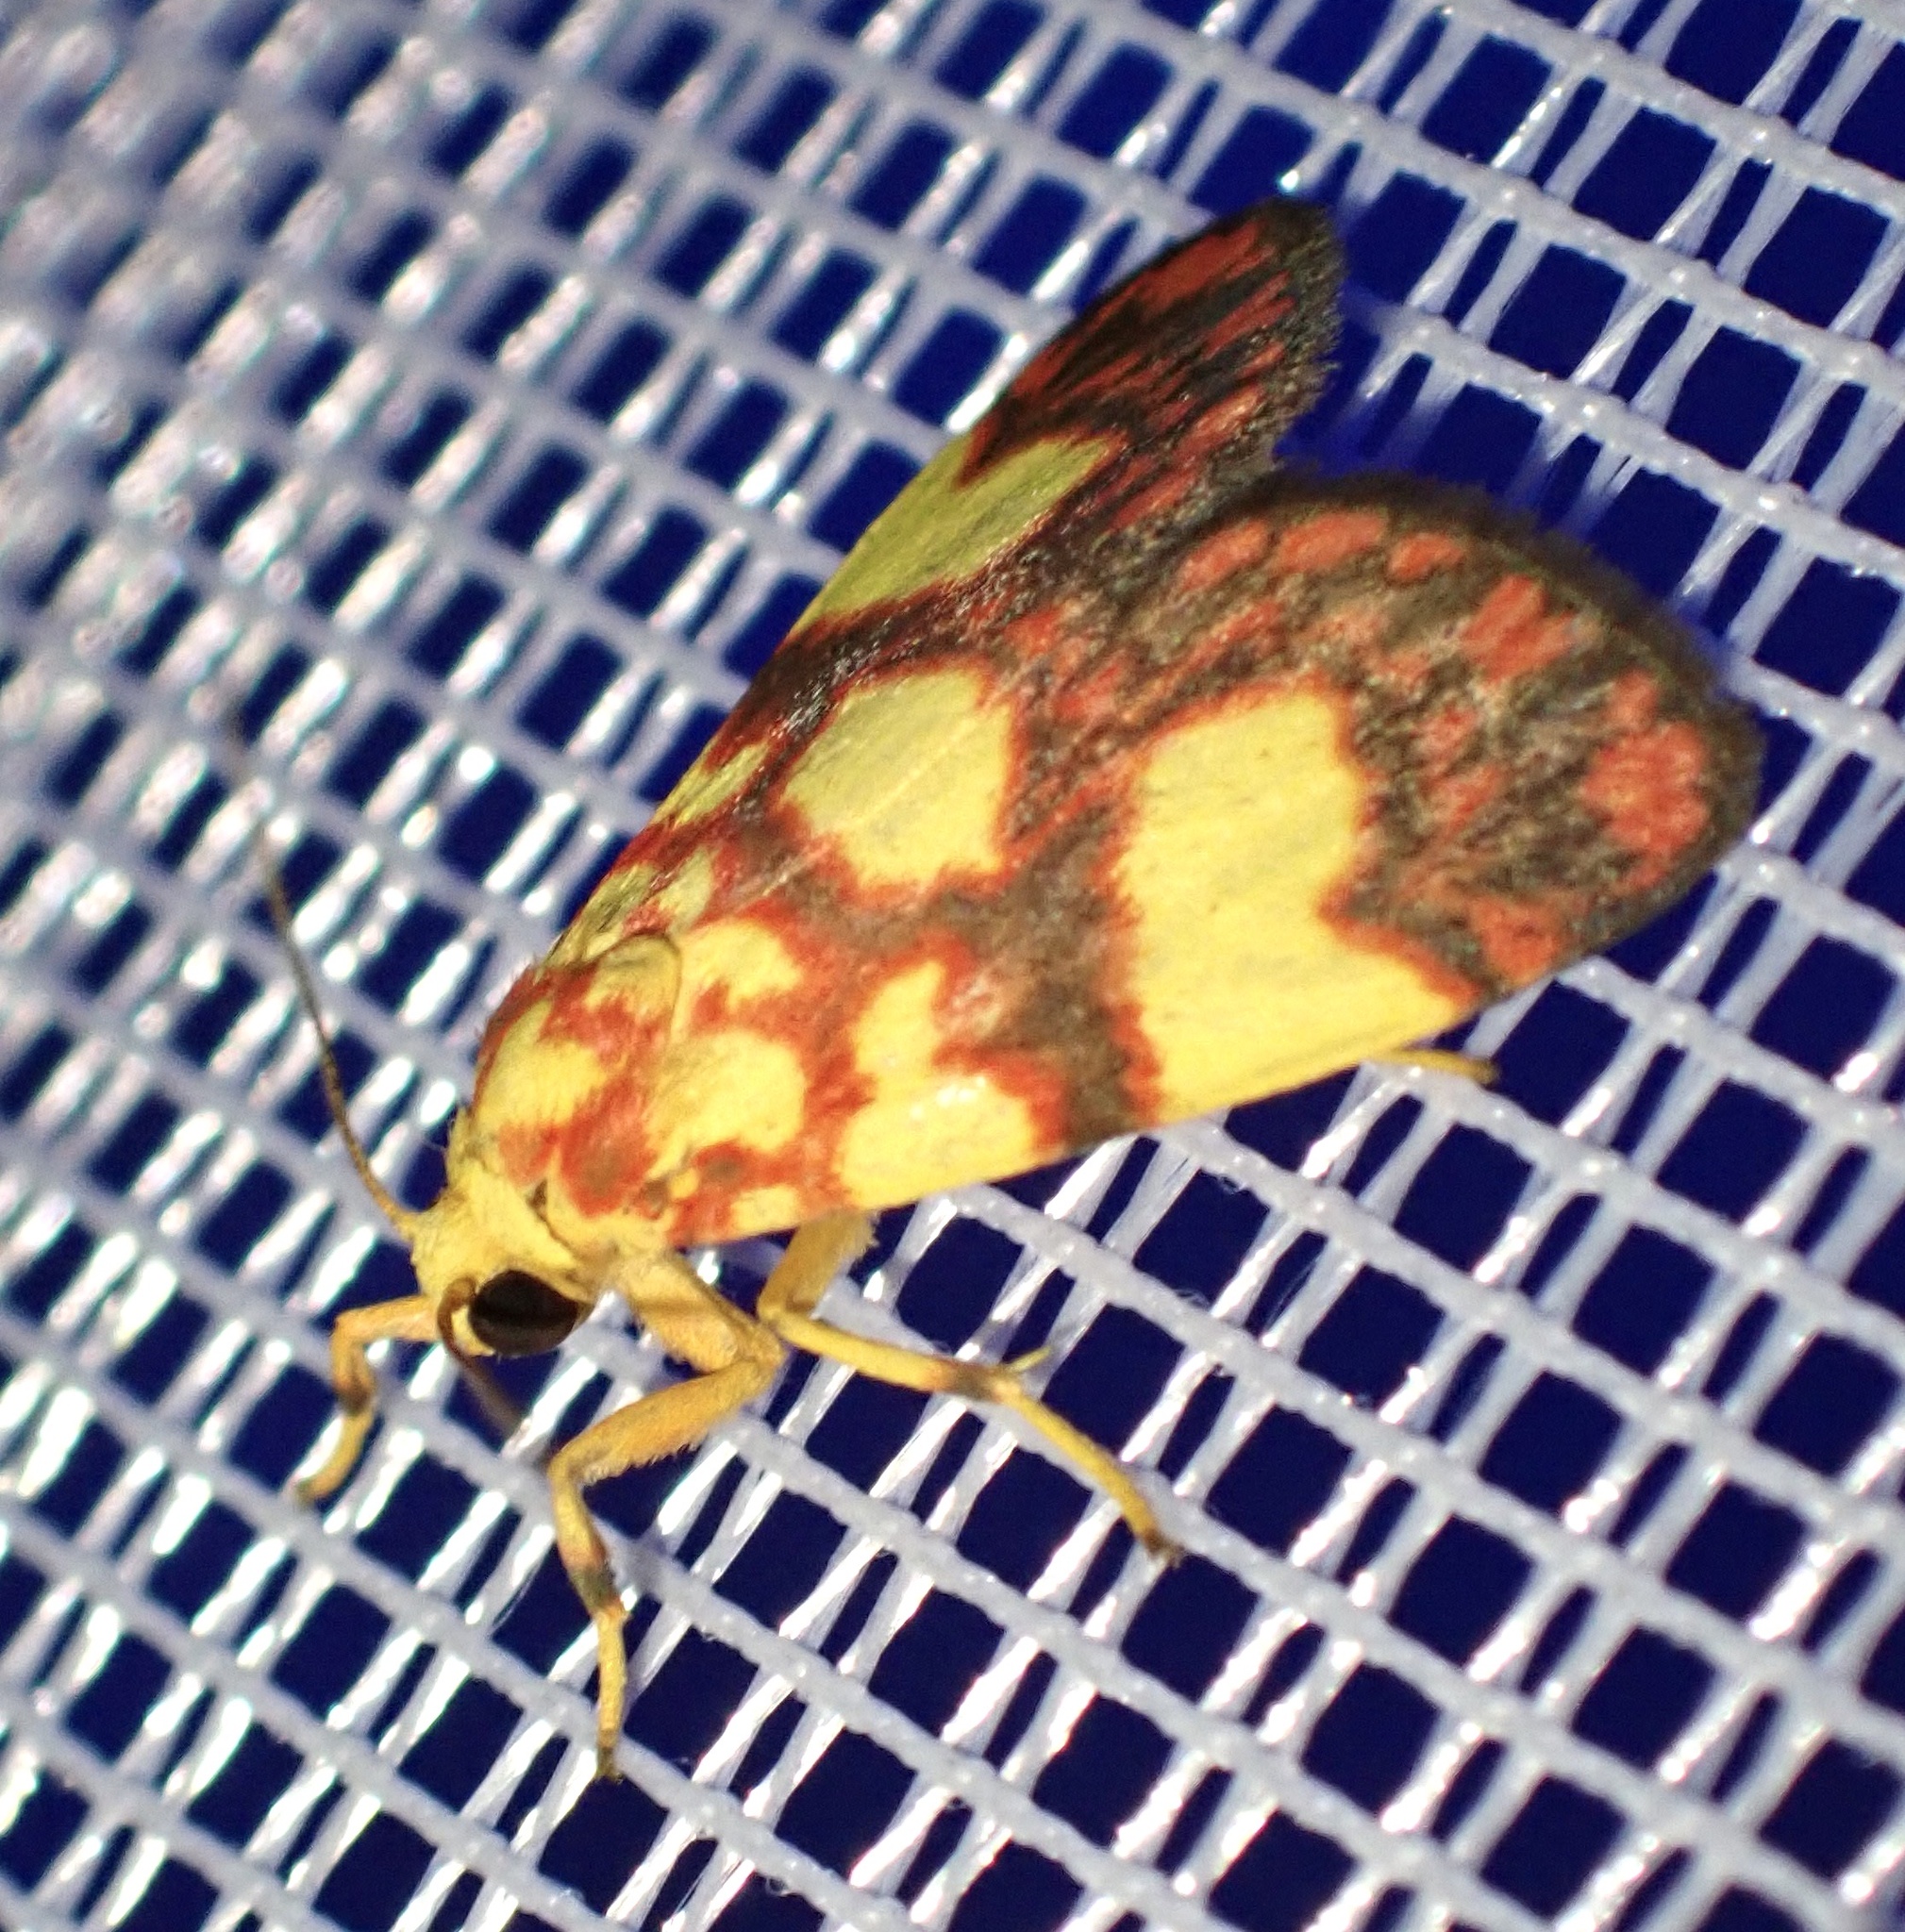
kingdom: Animalia
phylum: Arthropoda
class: Insecta
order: Lepidoptera
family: Erebidae
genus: Cyme
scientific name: Cyme suavis
